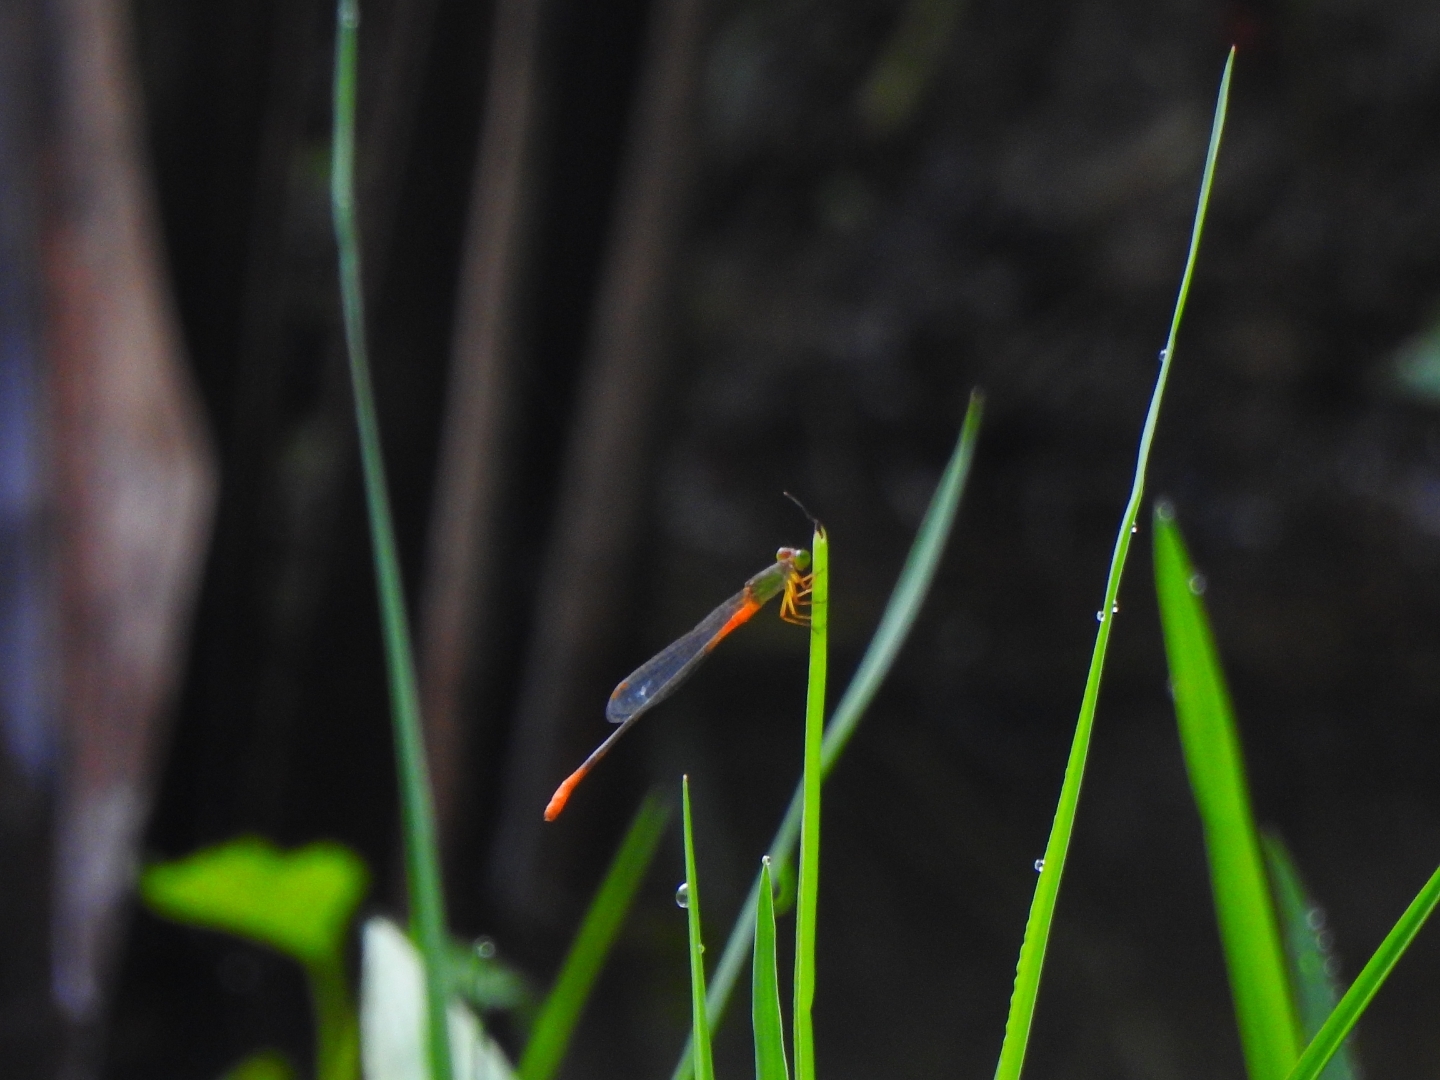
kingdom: Animalia
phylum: Arthropoda
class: Insecta
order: Odonata
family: Coenagrionidae
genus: Ceriagrion
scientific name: Ceriagrion cerinorubellum
